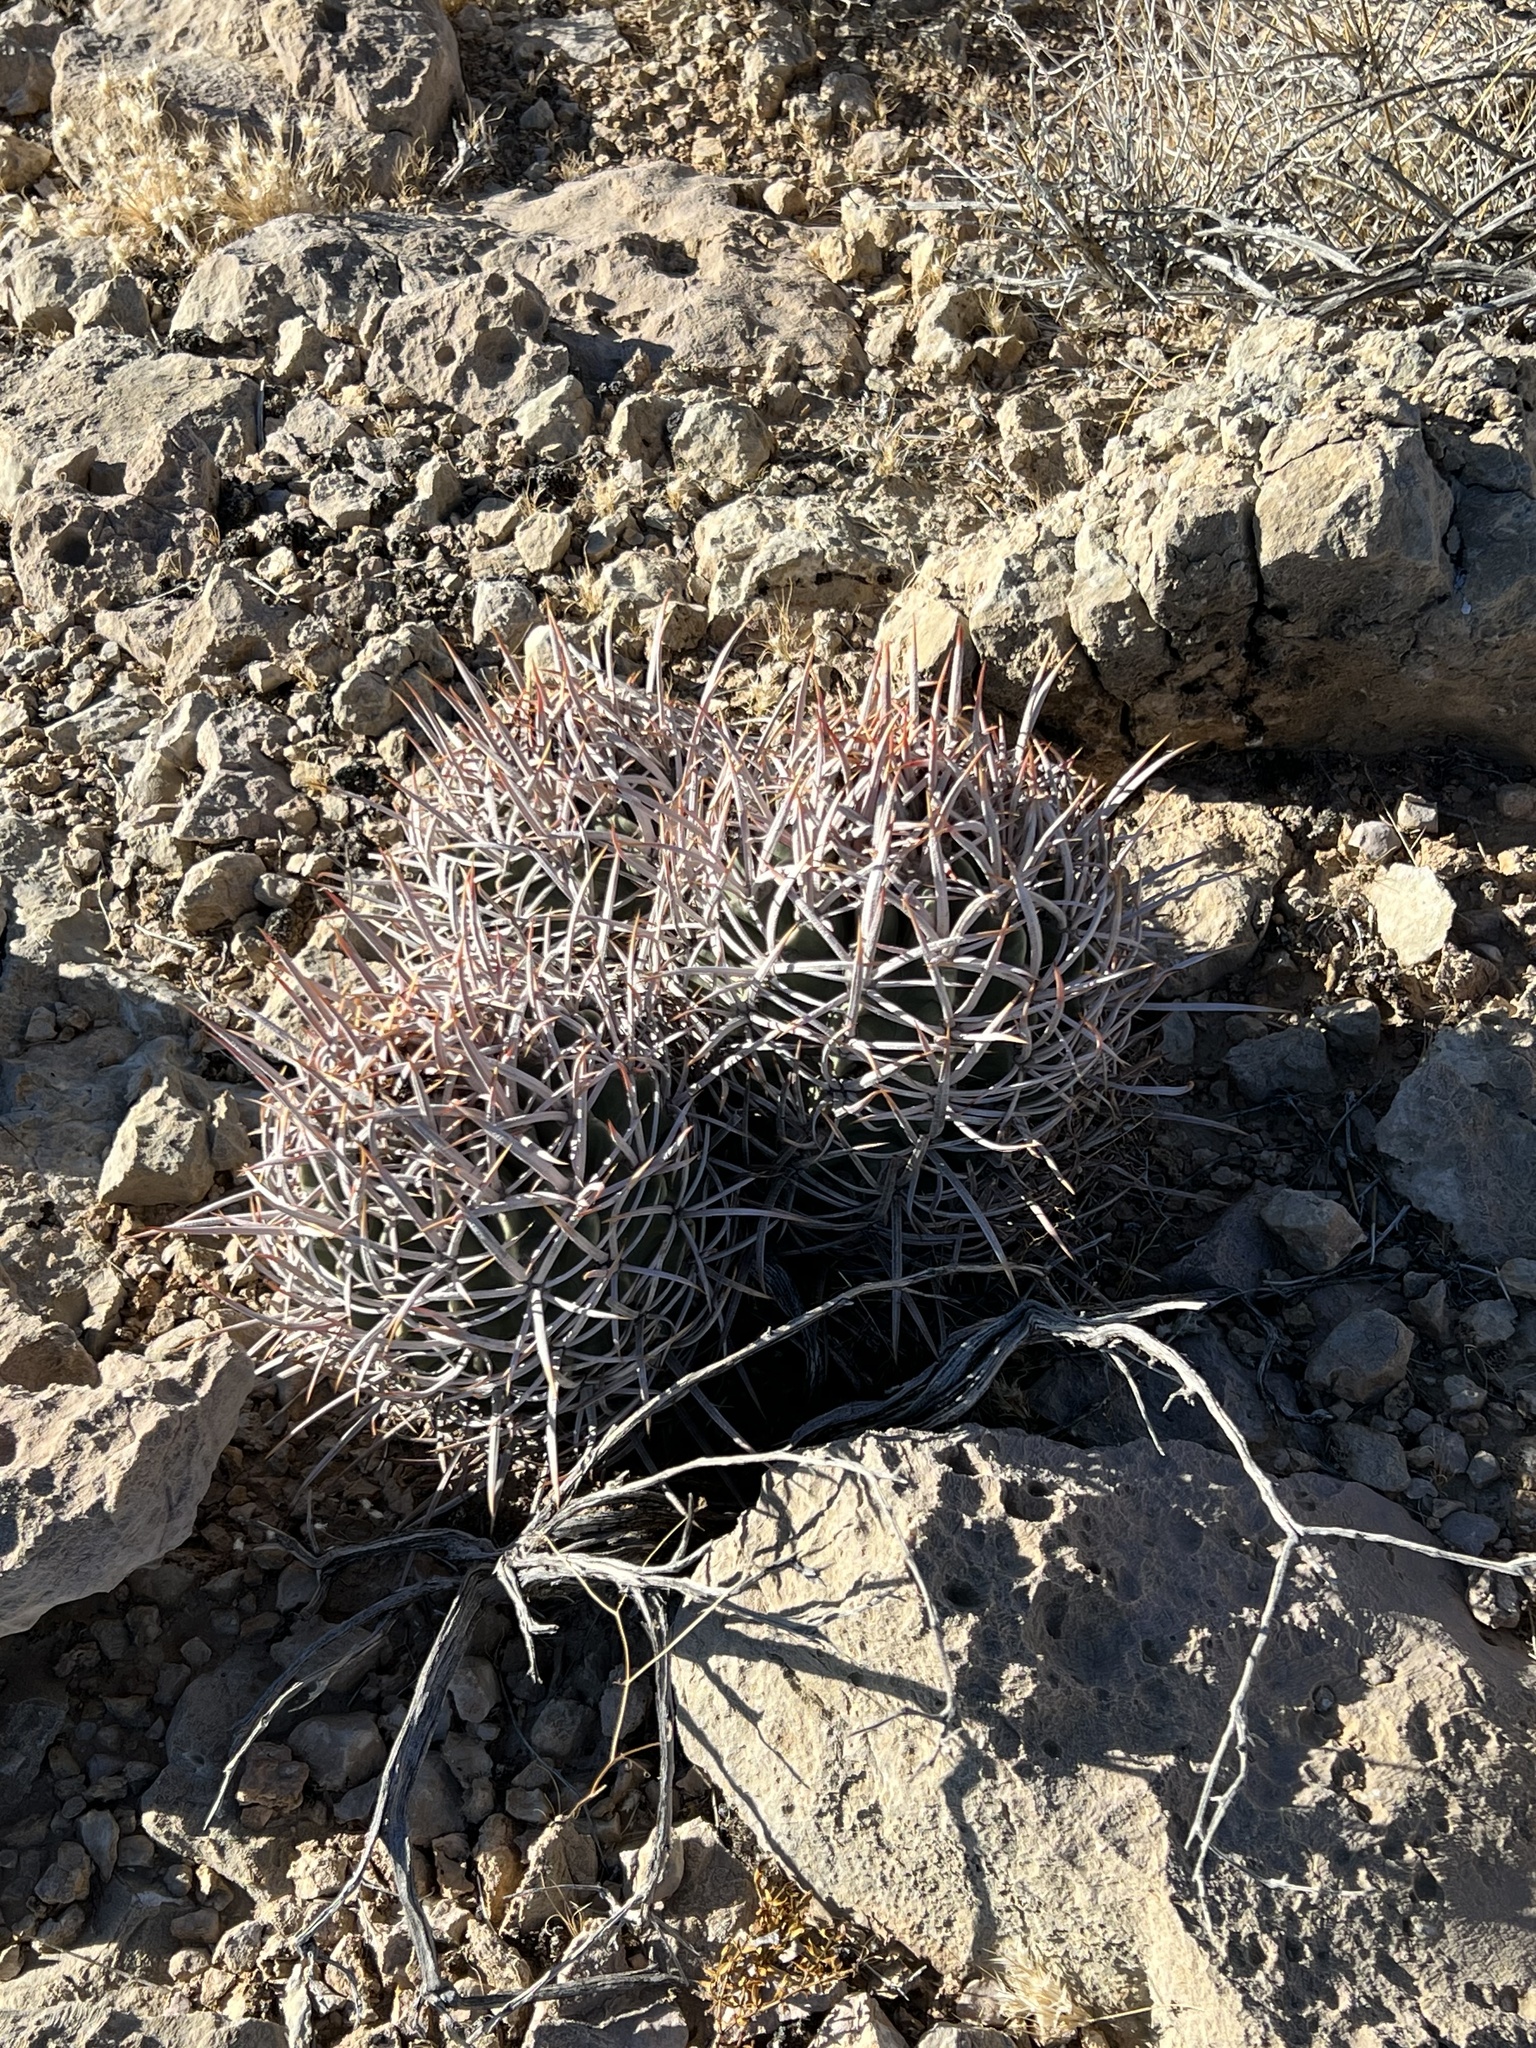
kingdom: Plantae
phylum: Tracheophyta
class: Magnoliopsida
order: Caryophyllales
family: Cactaceae
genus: Echinocactus
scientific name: Echinocactus polycephalus
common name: Cottontop cactus
